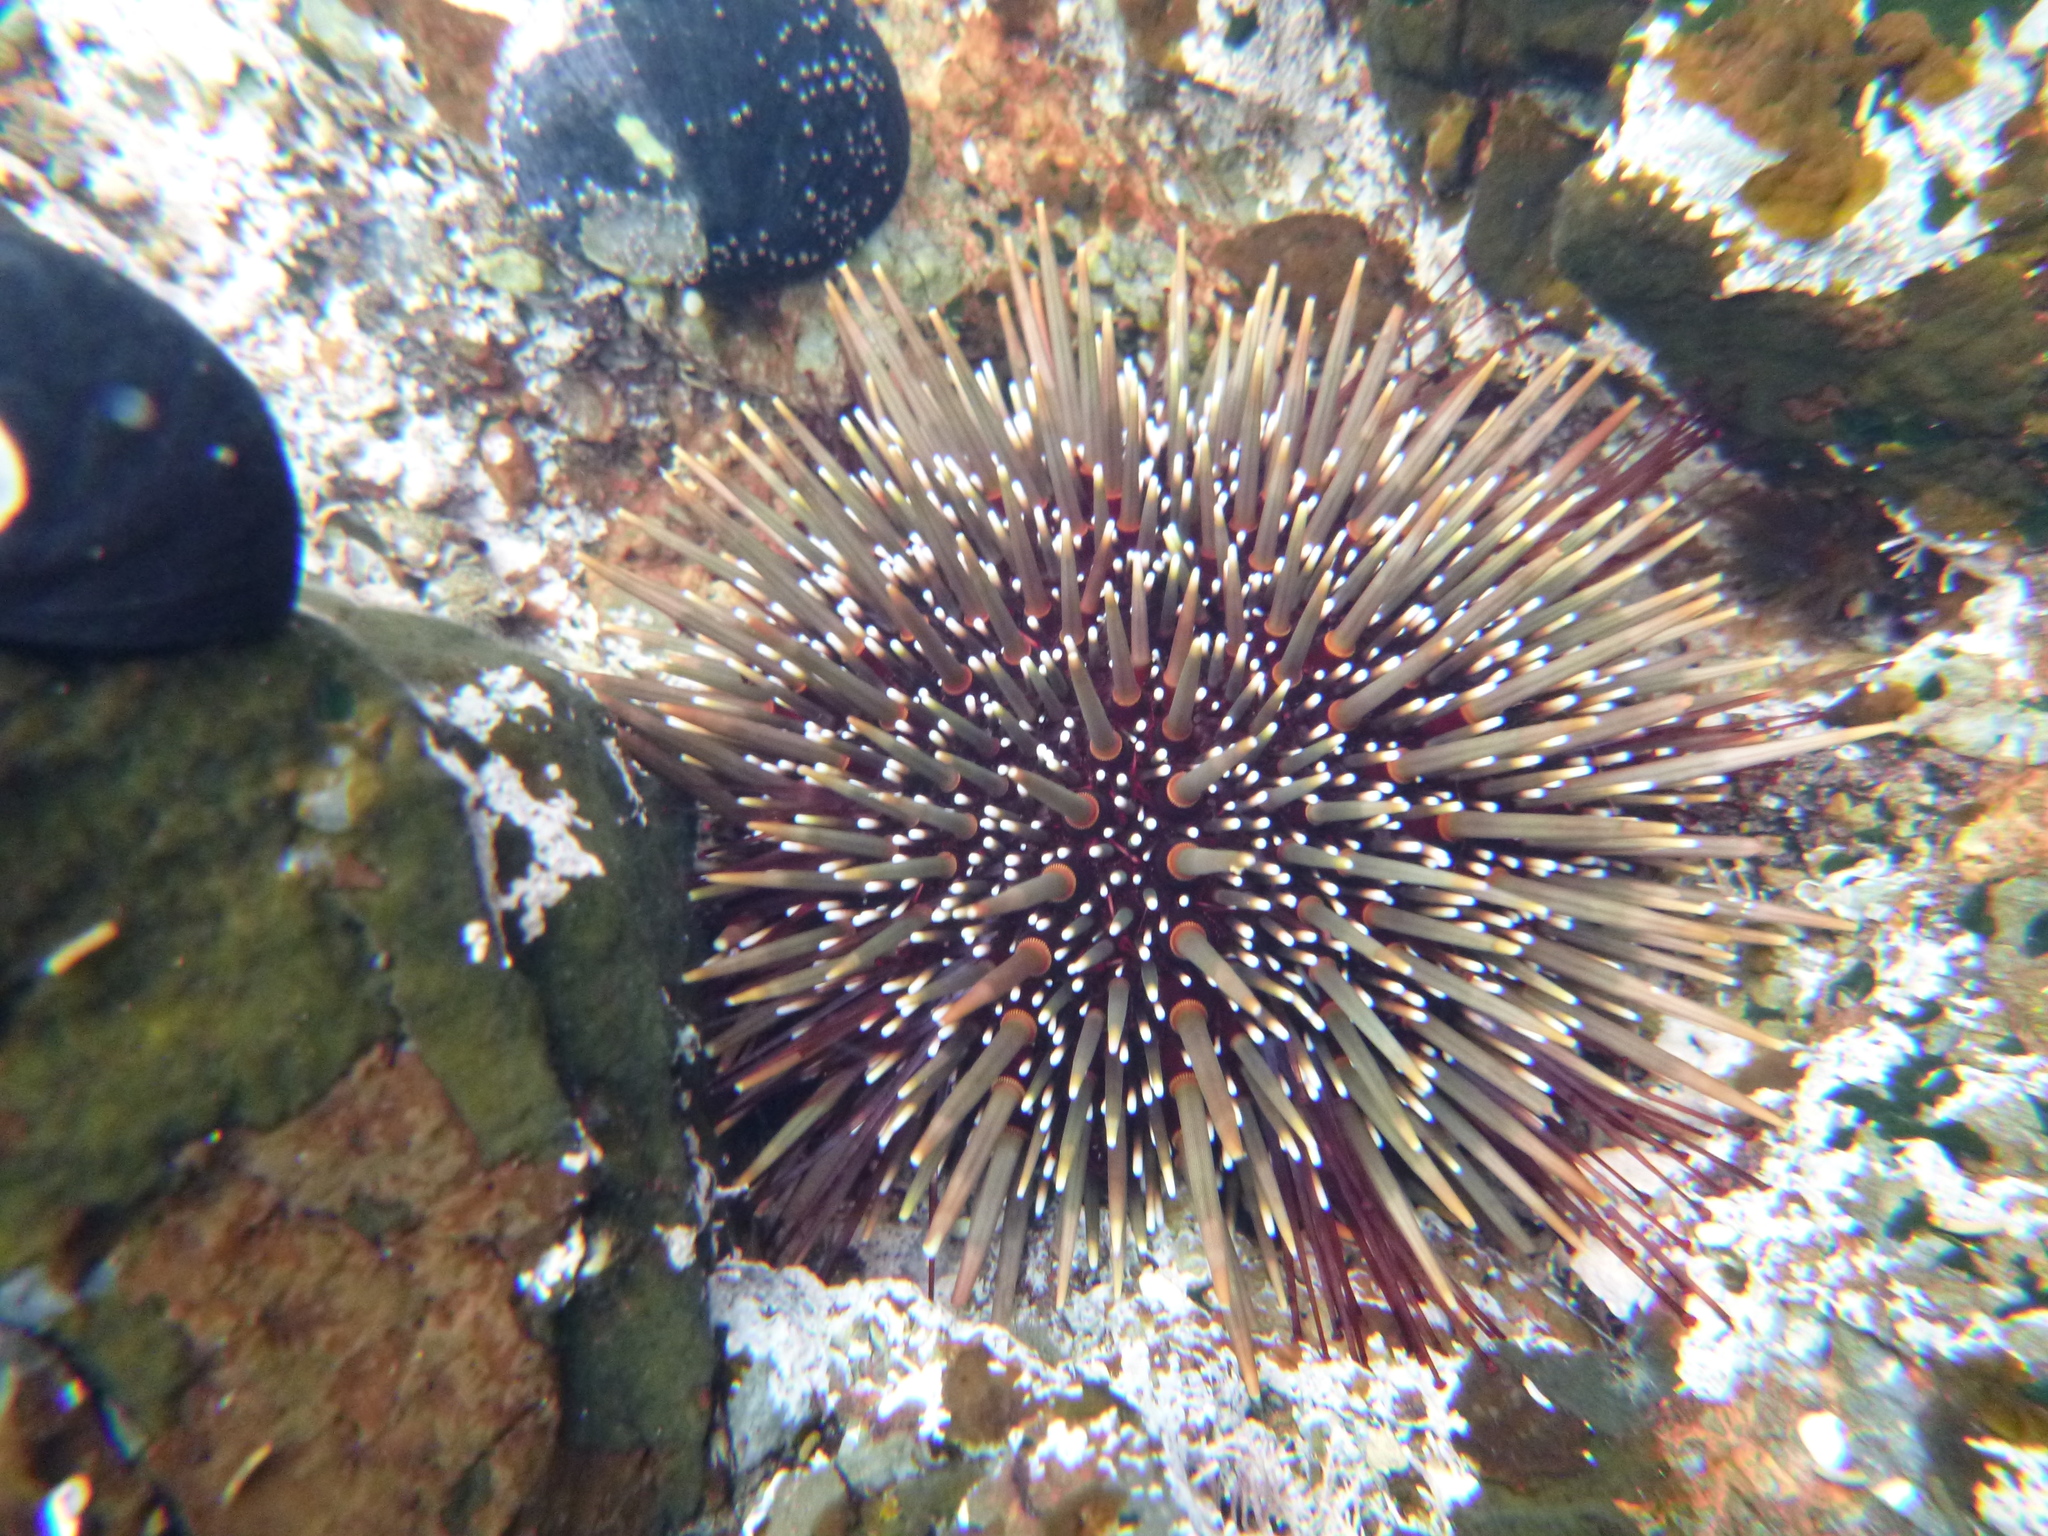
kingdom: Animalia
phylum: Echinodermata
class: Echinoidea
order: Camarodonta
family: Echinometridae
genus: Evechinus
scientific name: Evechinus chloroticus
